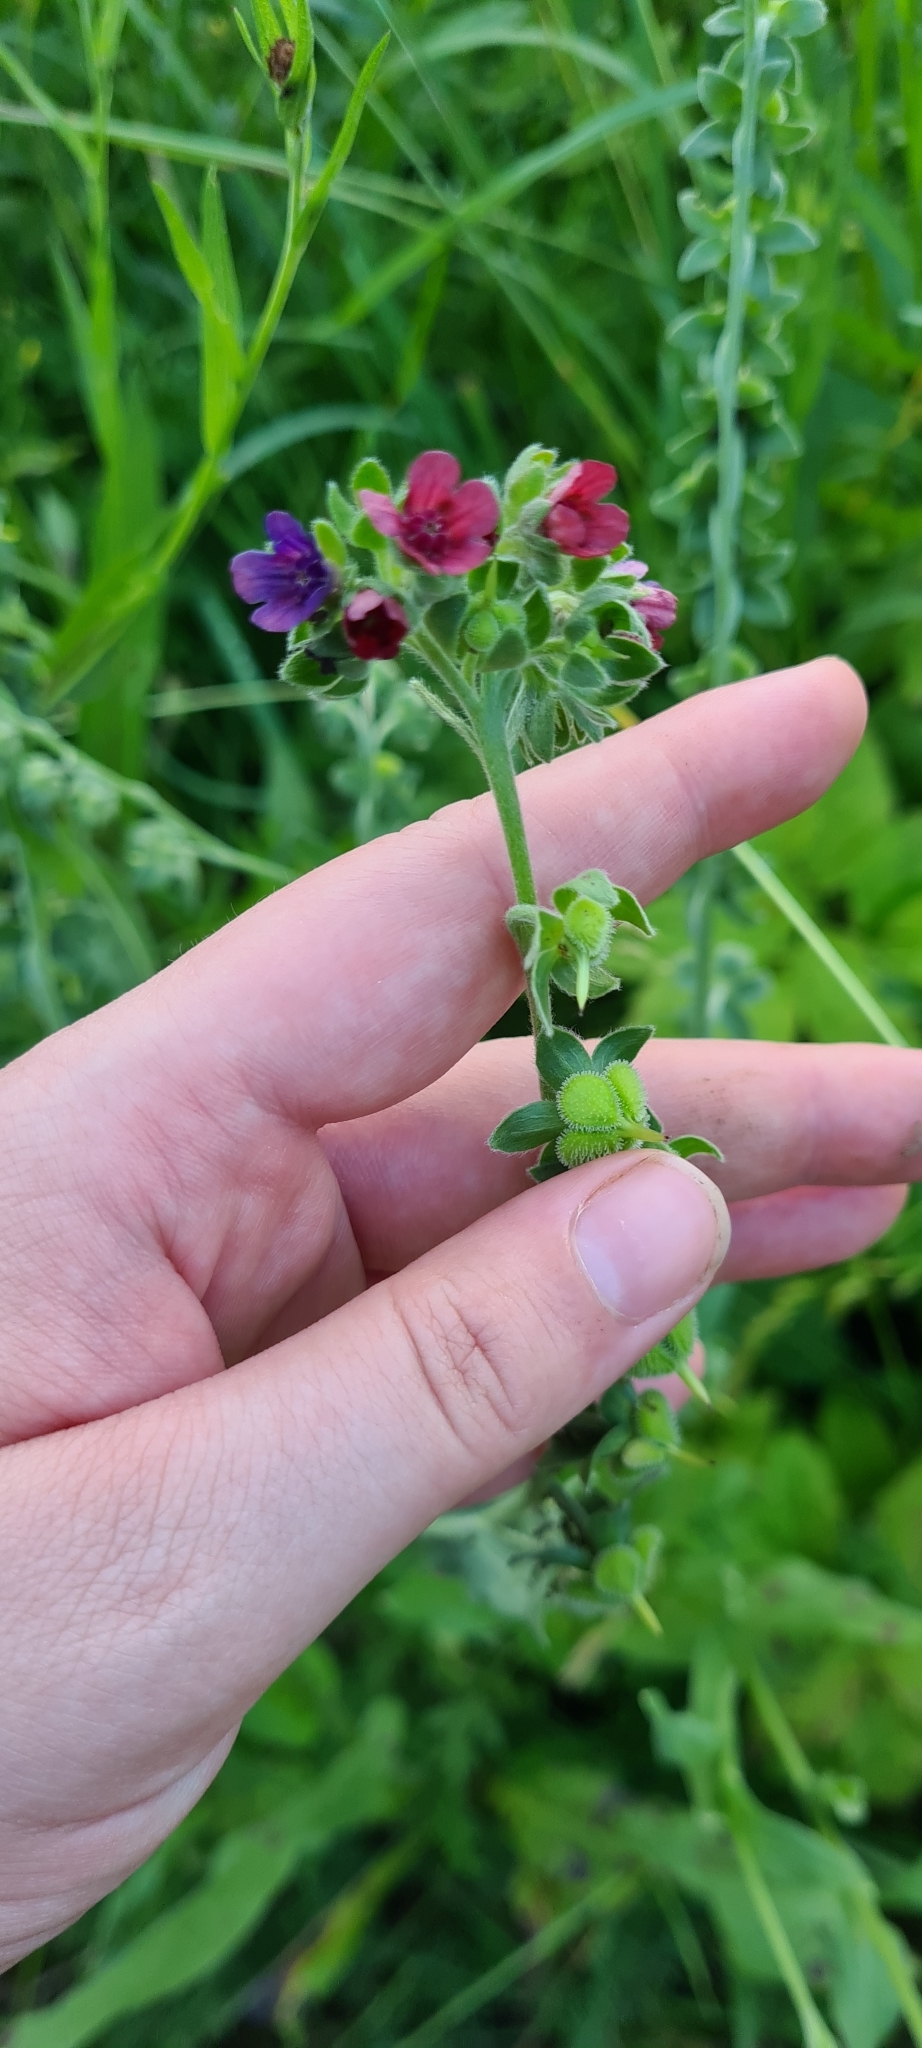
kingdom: Plantae
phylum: Tracheophyta
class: Magnoliopsida
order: Boraginales
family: Boraginaceae
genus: Cynoglossum
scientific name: Cynoglossum officinale
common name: Hound's-tongue
